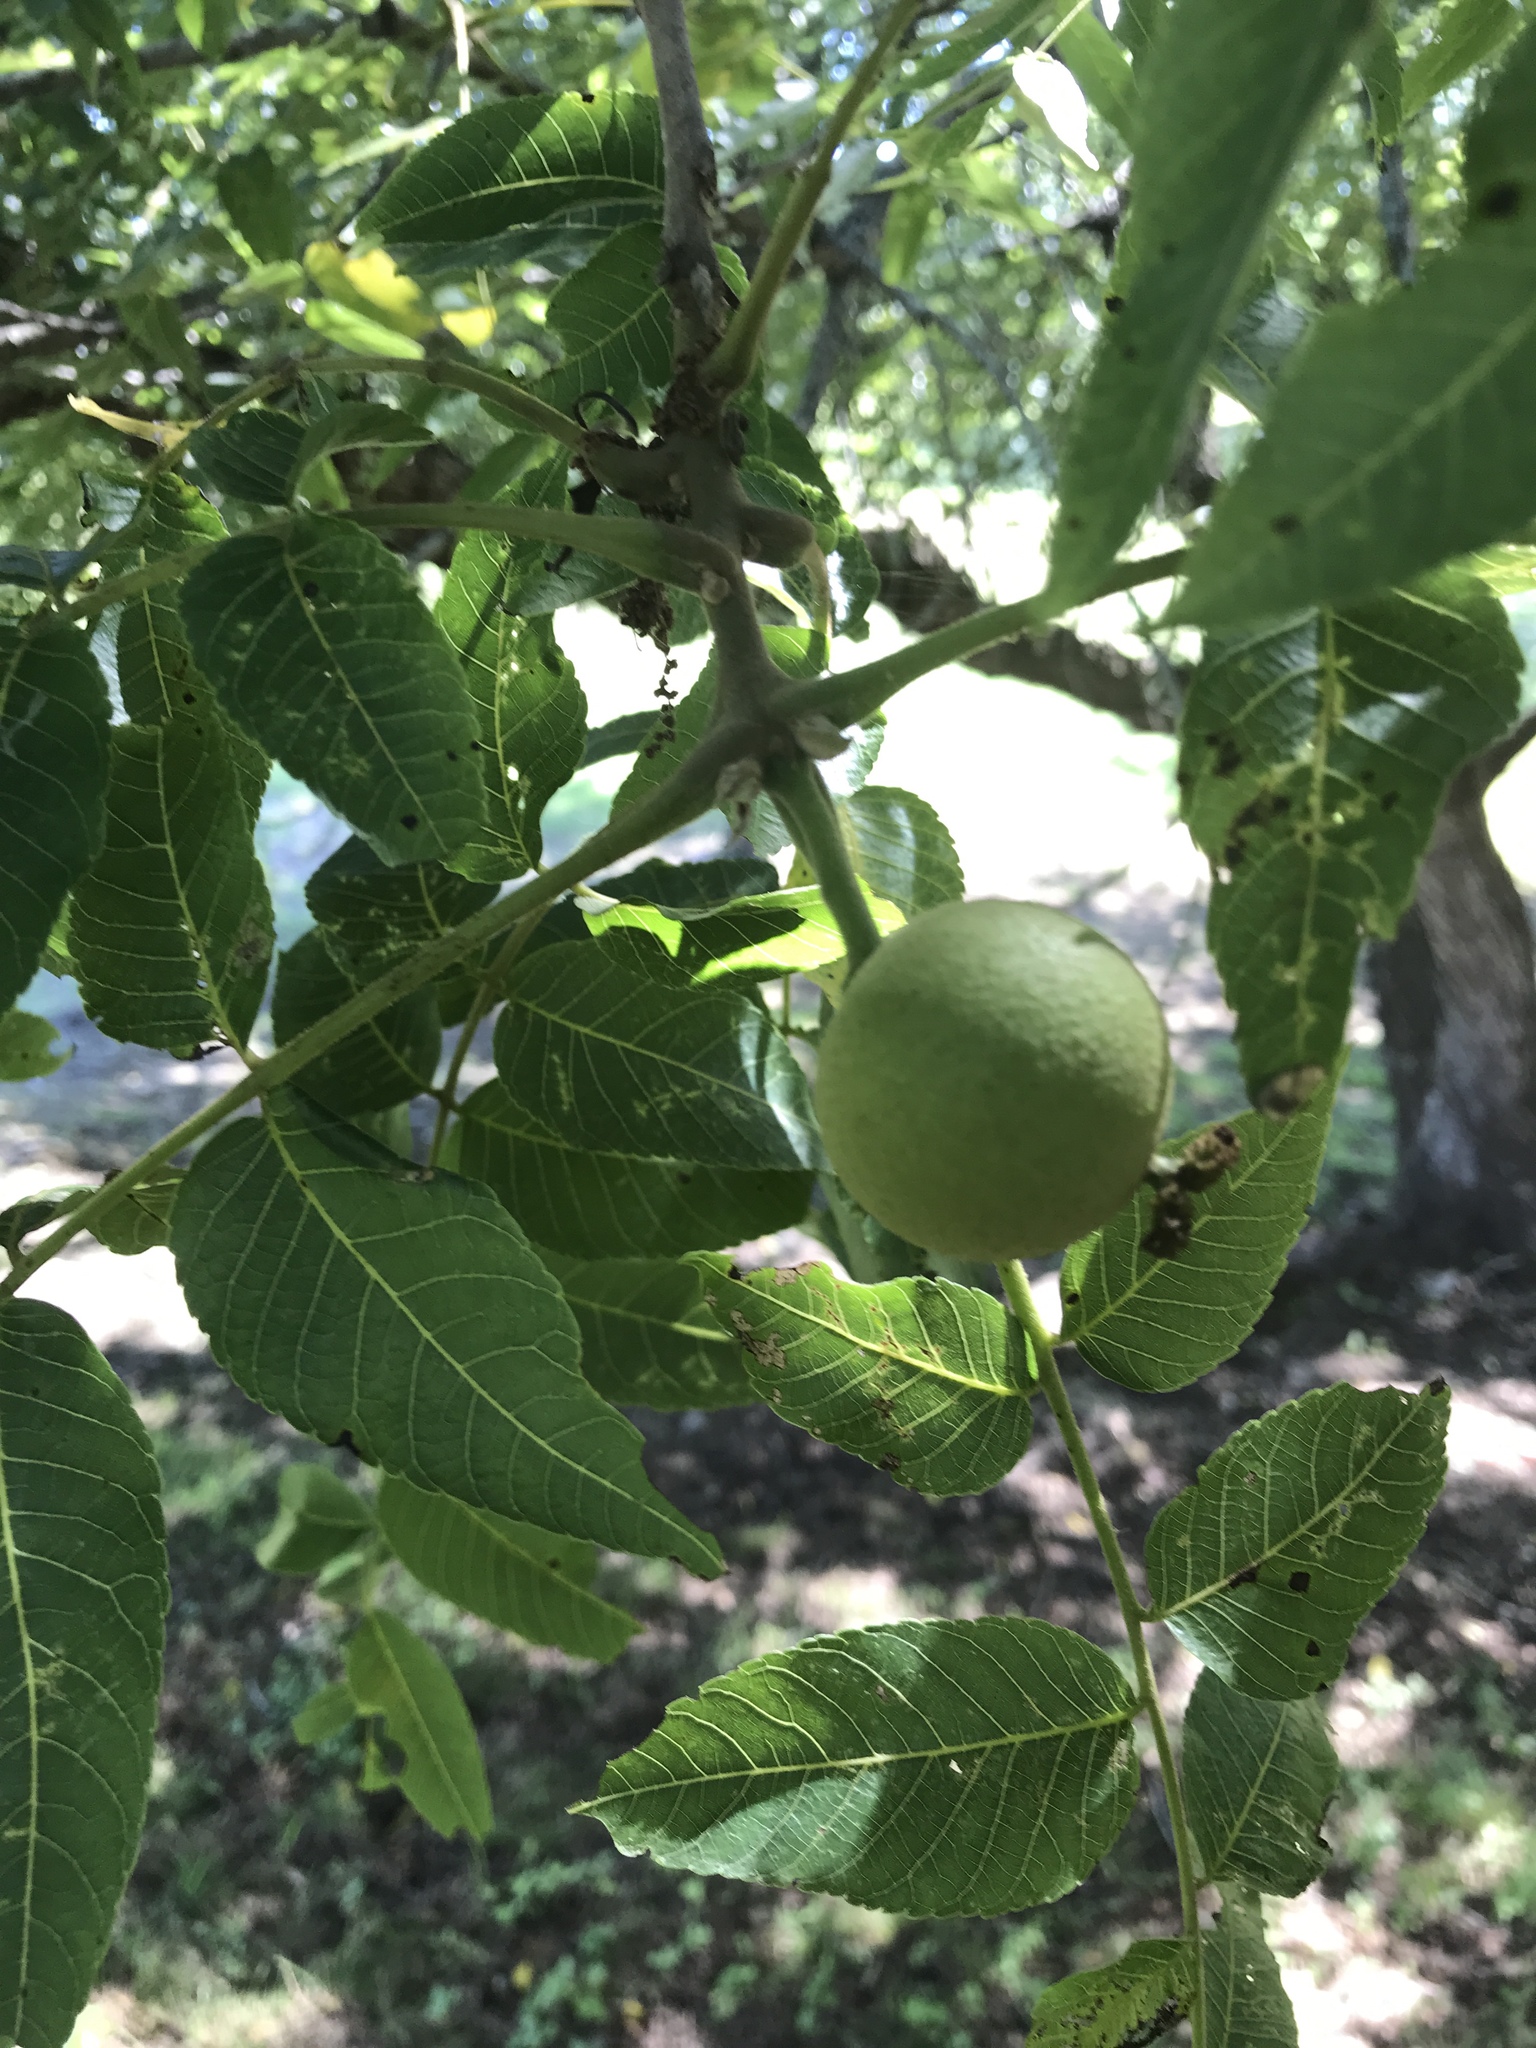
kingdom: Plantae
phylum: Tracheophyta
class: Magnoliopsida
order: Fagales
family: Juglandaceae
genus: Juglans
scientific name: Juglans nigra
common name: Black walnut
